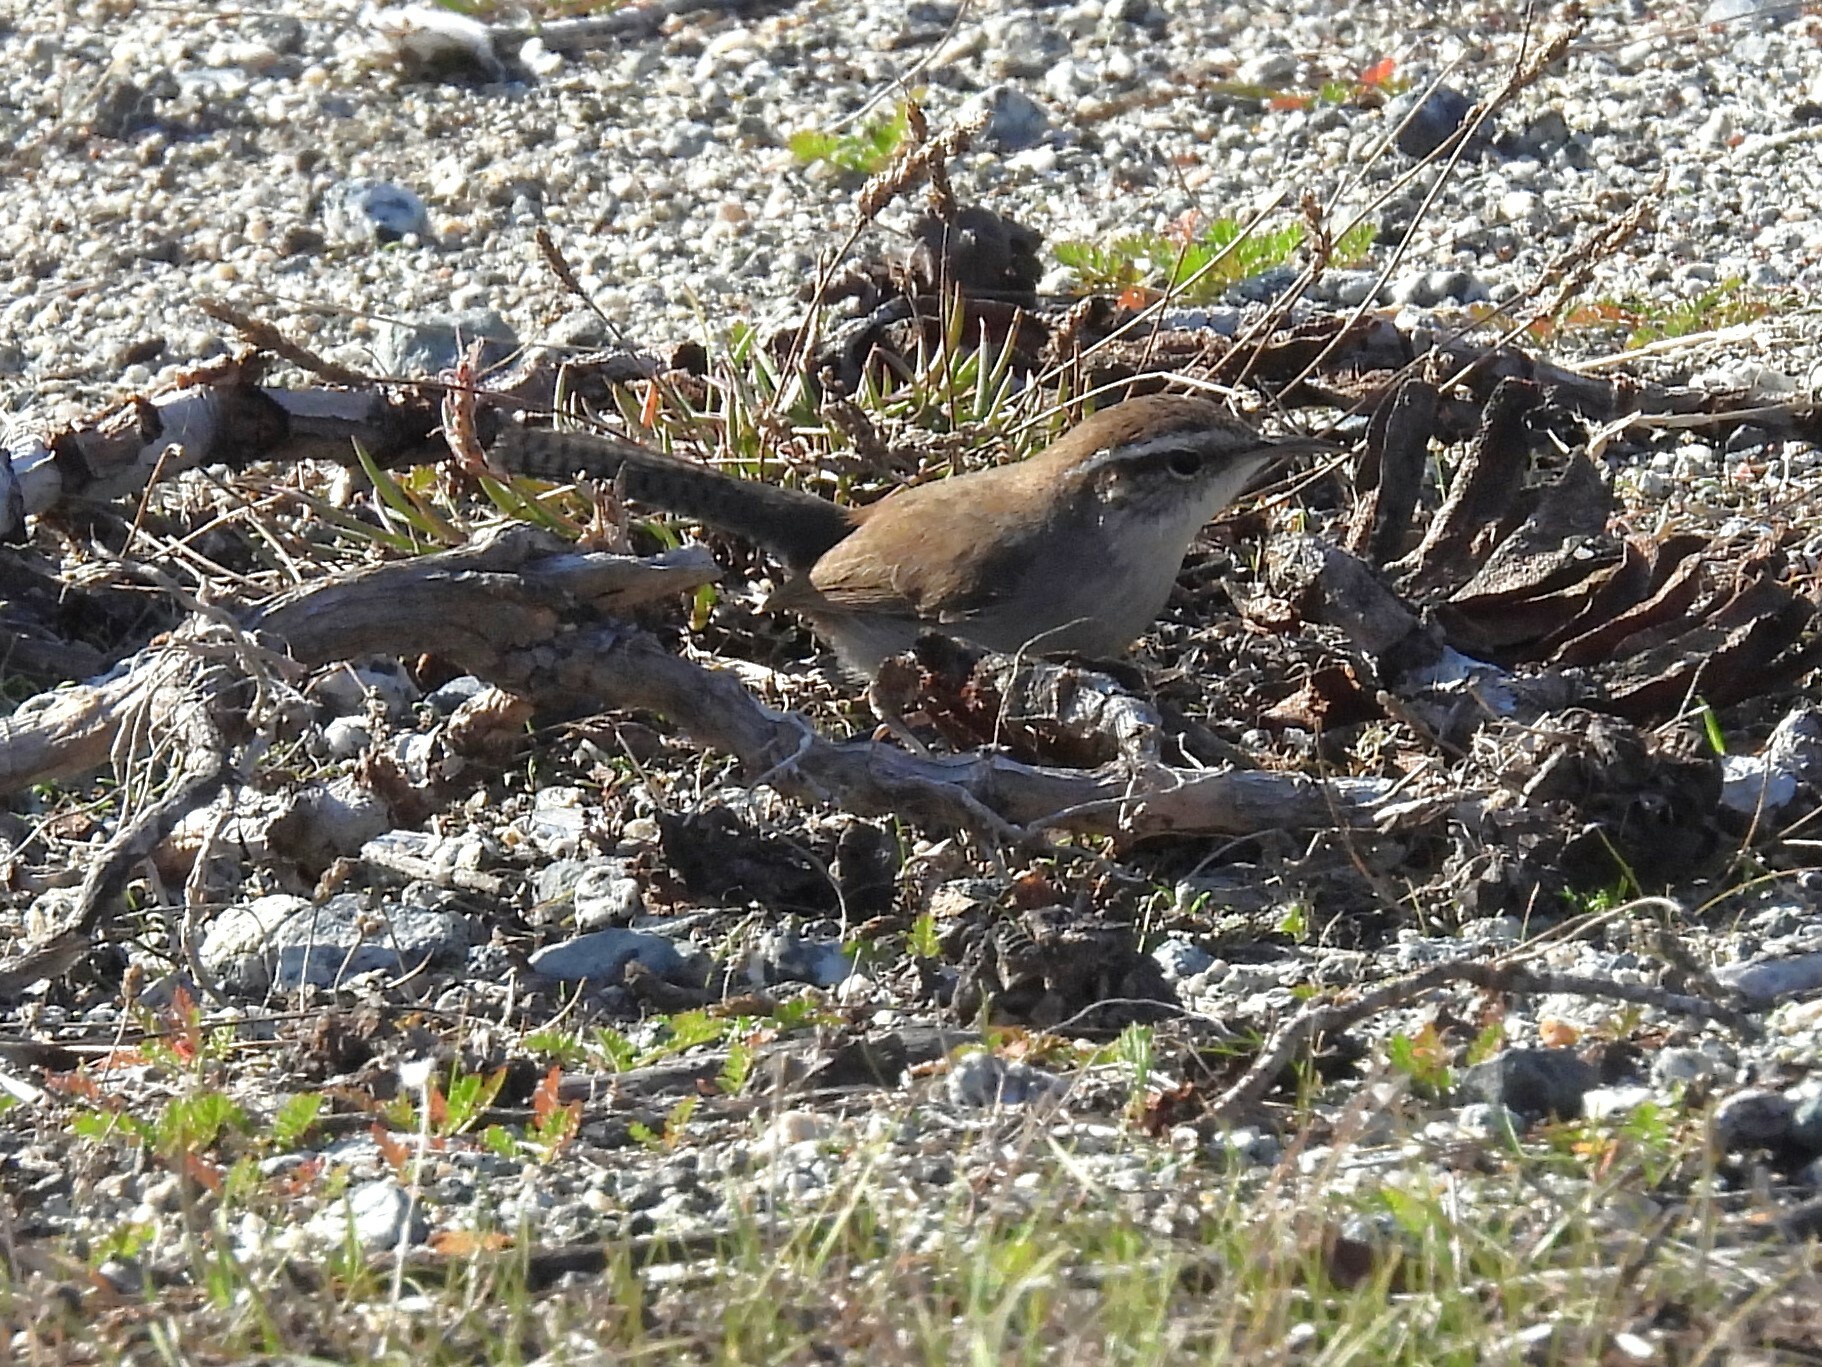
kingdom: Animalia
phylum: Chordata
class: Aves
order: Passeriformes
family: Troglodytidae
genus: Thryomanes
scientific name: Thryomanes bewickii
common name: Bewick's wren
